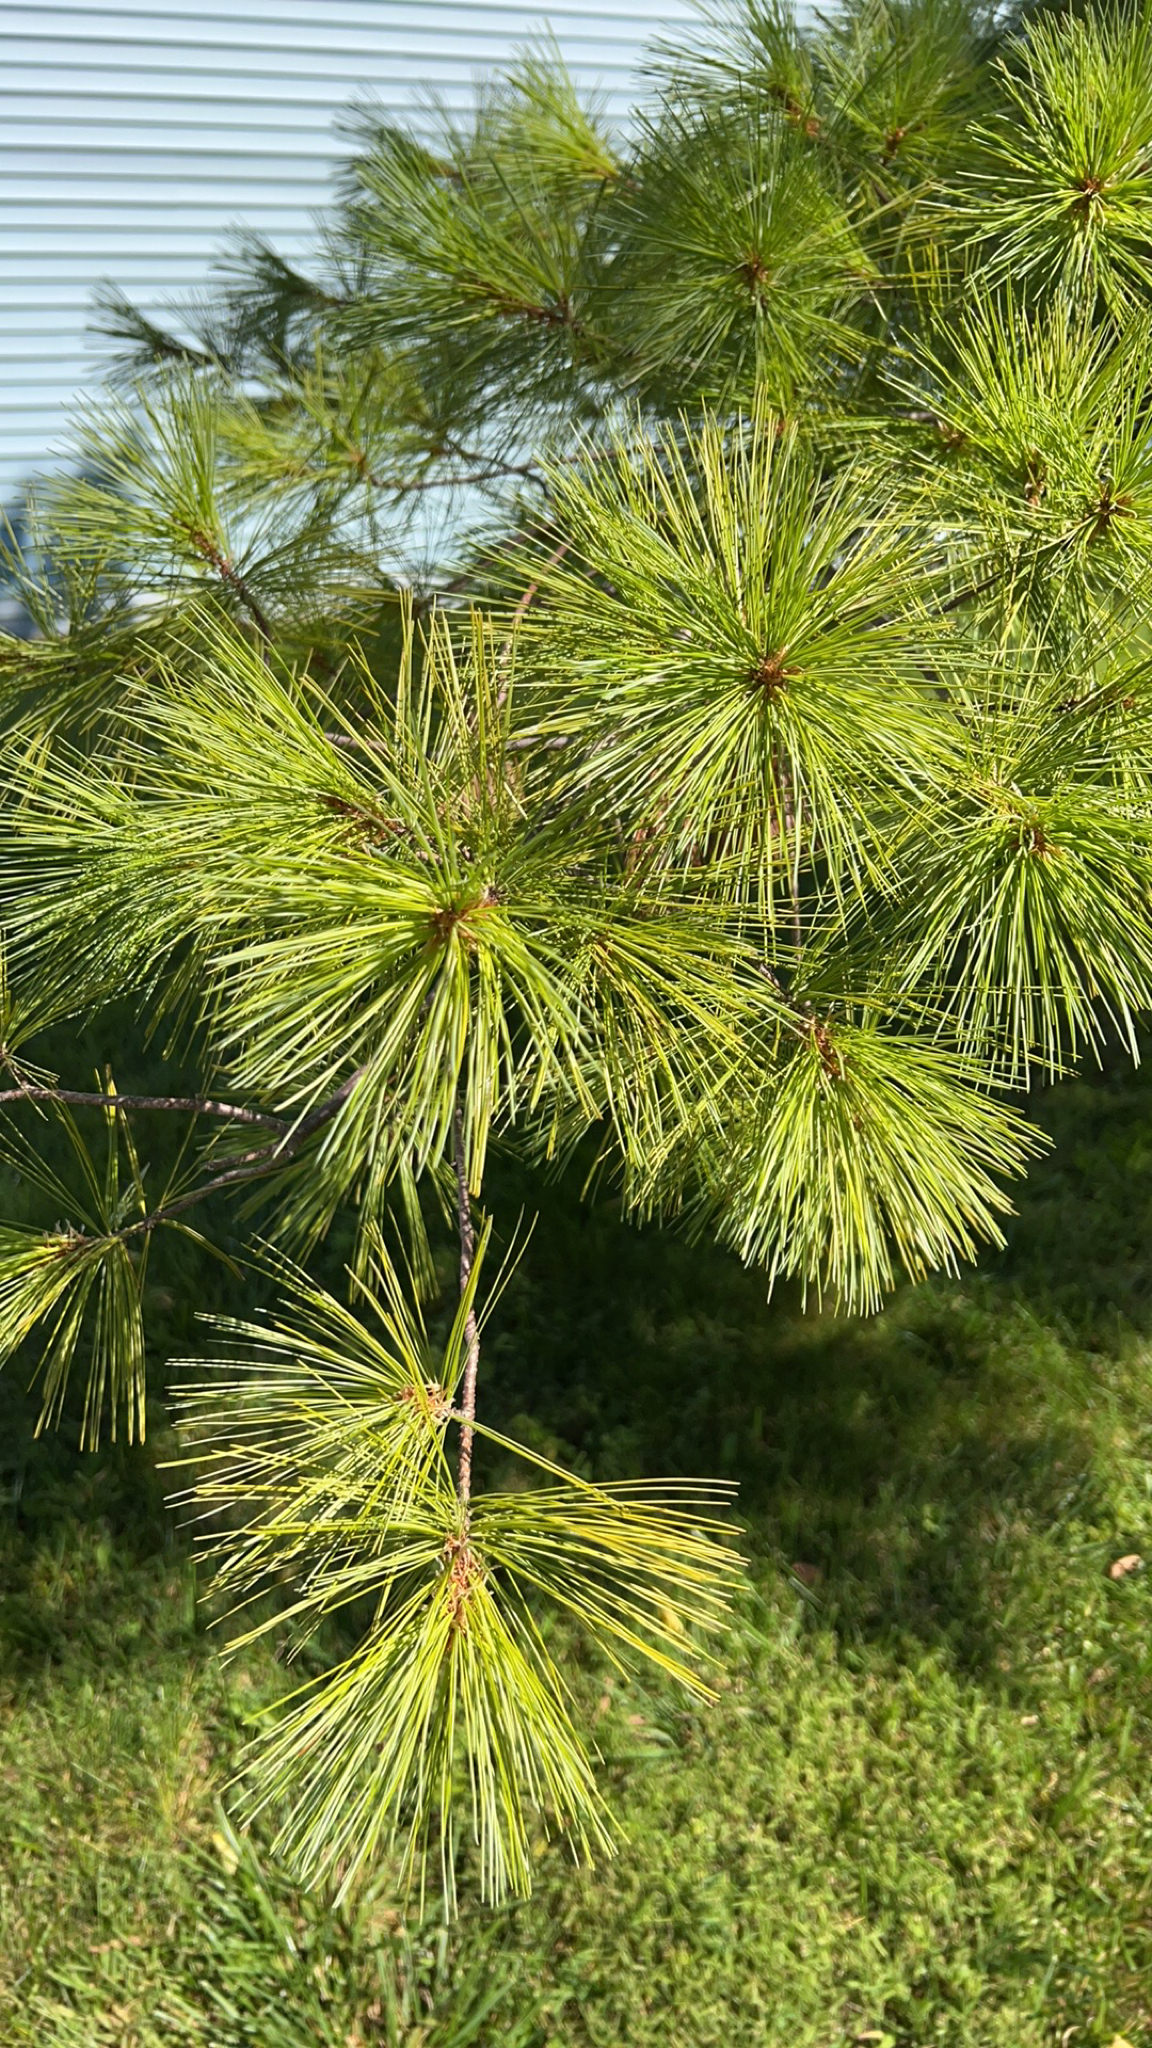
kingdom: Plantae
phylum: Tracheophyta
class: Pinopsida
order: Pinales
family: Pinaceae
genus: Pinus
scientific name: Pinus strobus
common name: Weymouth pine
